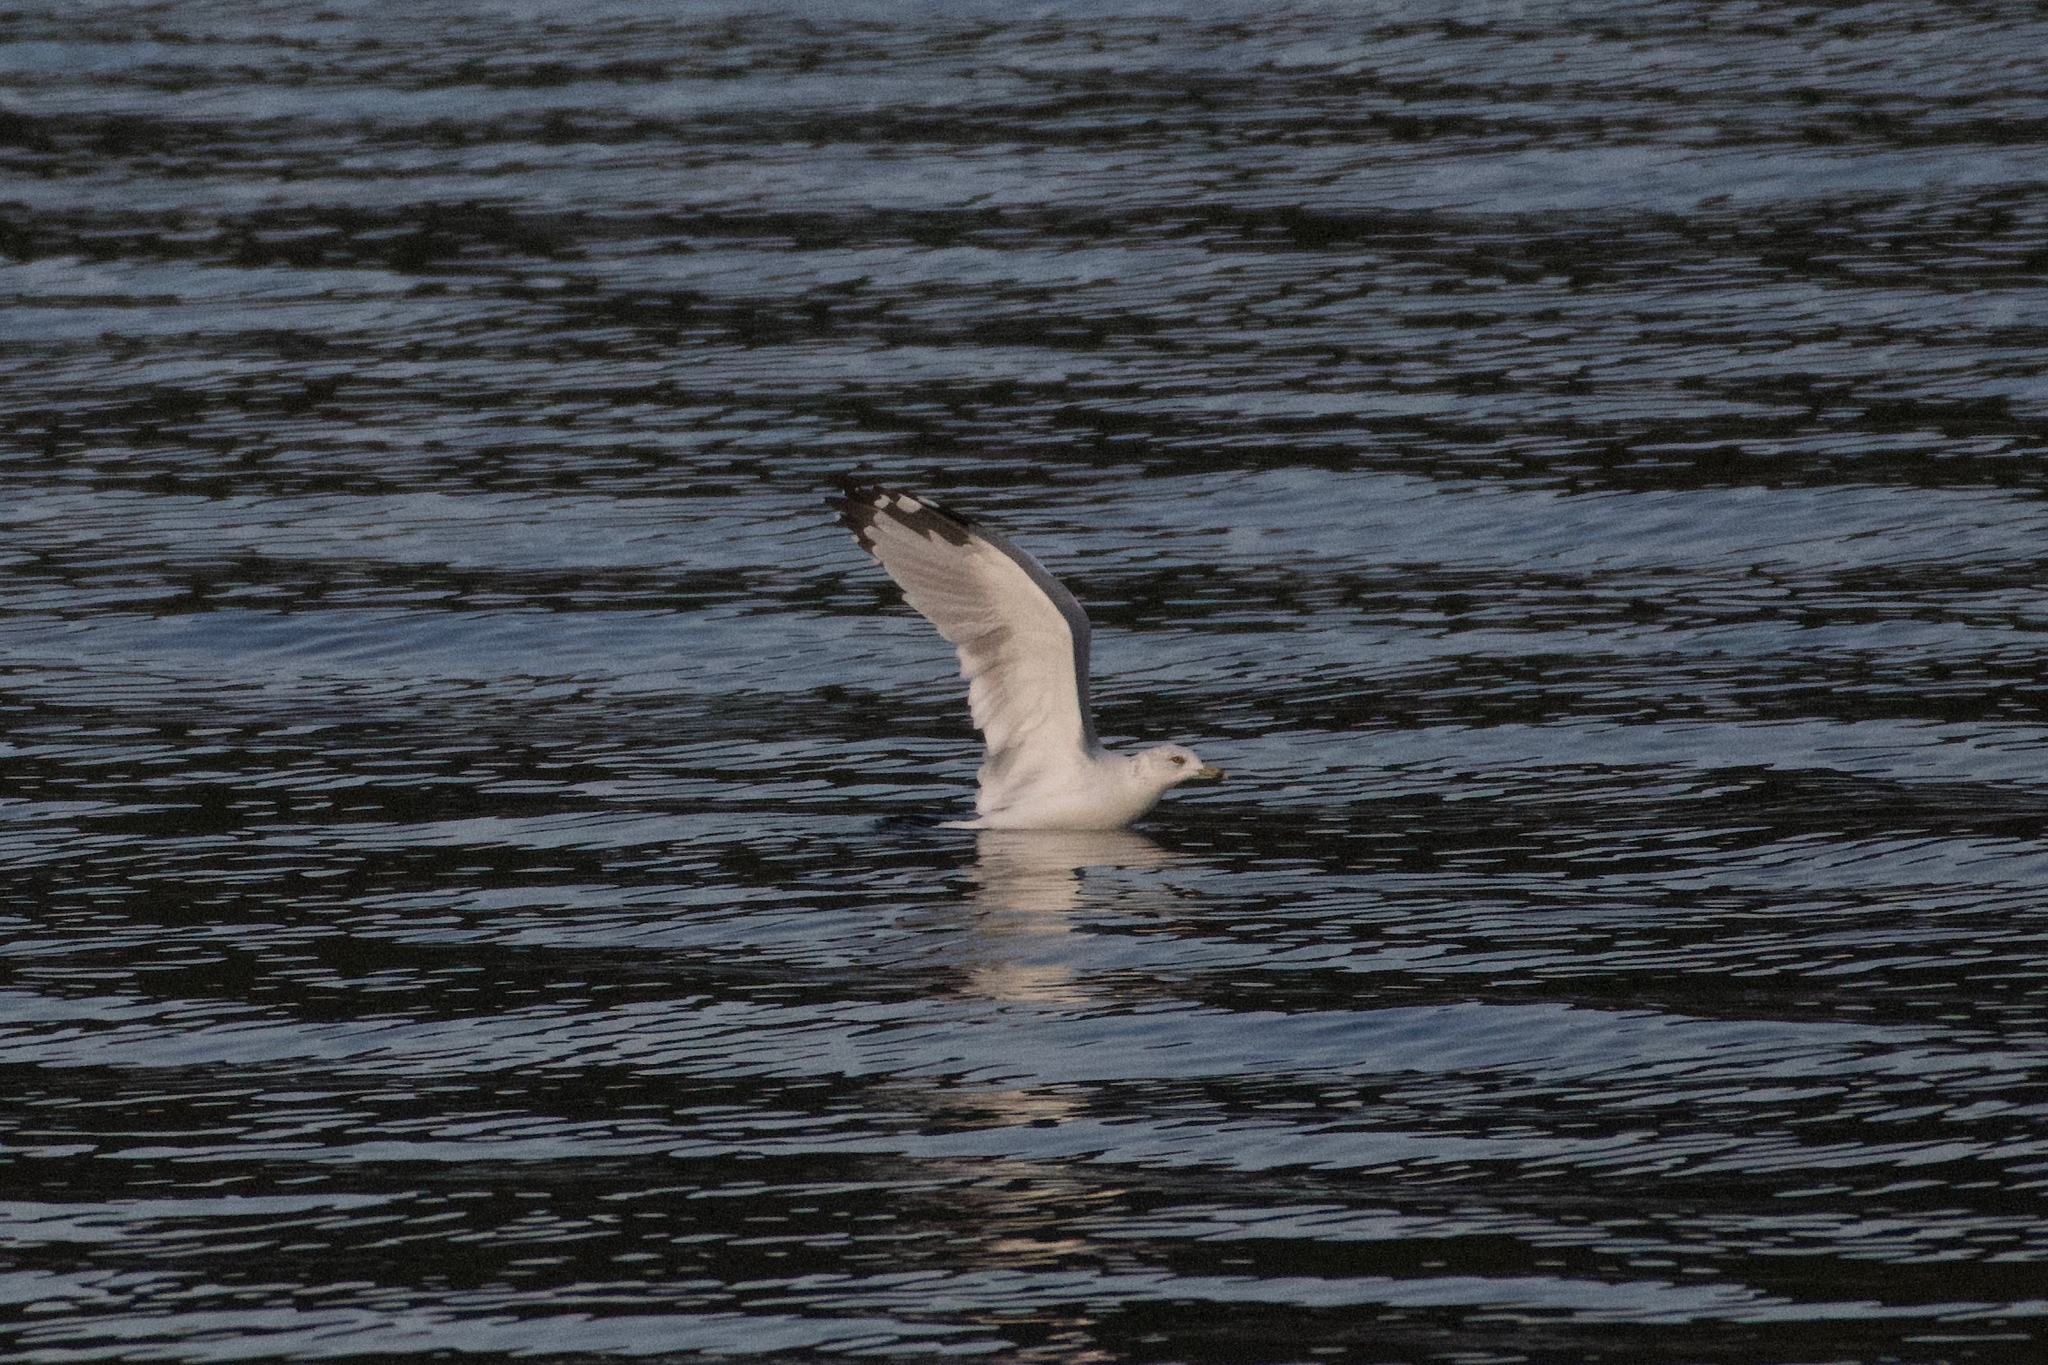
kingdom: Animalia
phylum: Chordata
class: Aves
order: Charadriiformes
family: Laridae
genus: Larus
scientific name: Larus delawarensis
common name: Ring-billed gull
